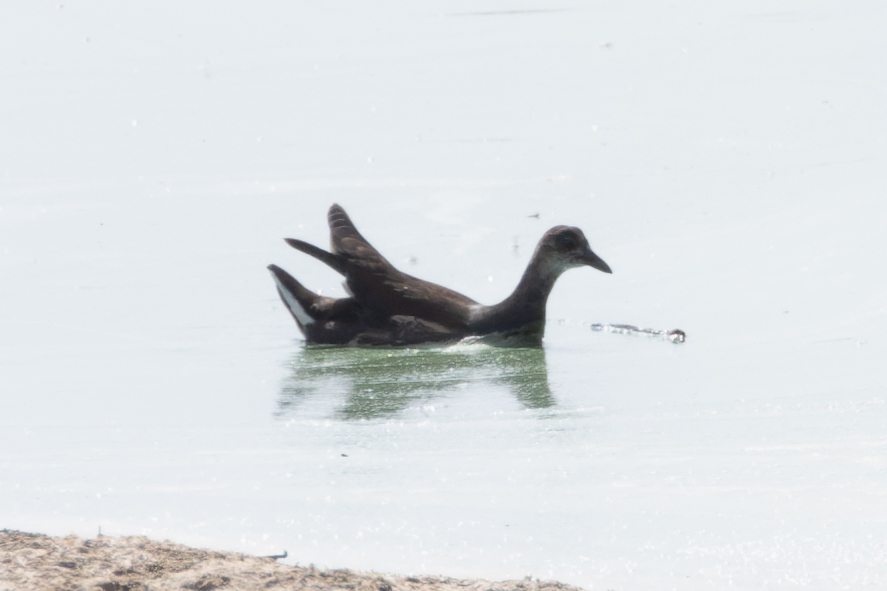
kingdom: Animalia
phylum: Chordata
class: Aves
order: Gruiformes
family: Rallidae
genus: Gallinula
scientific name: Gallinula chloropus
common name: Common moorhen
